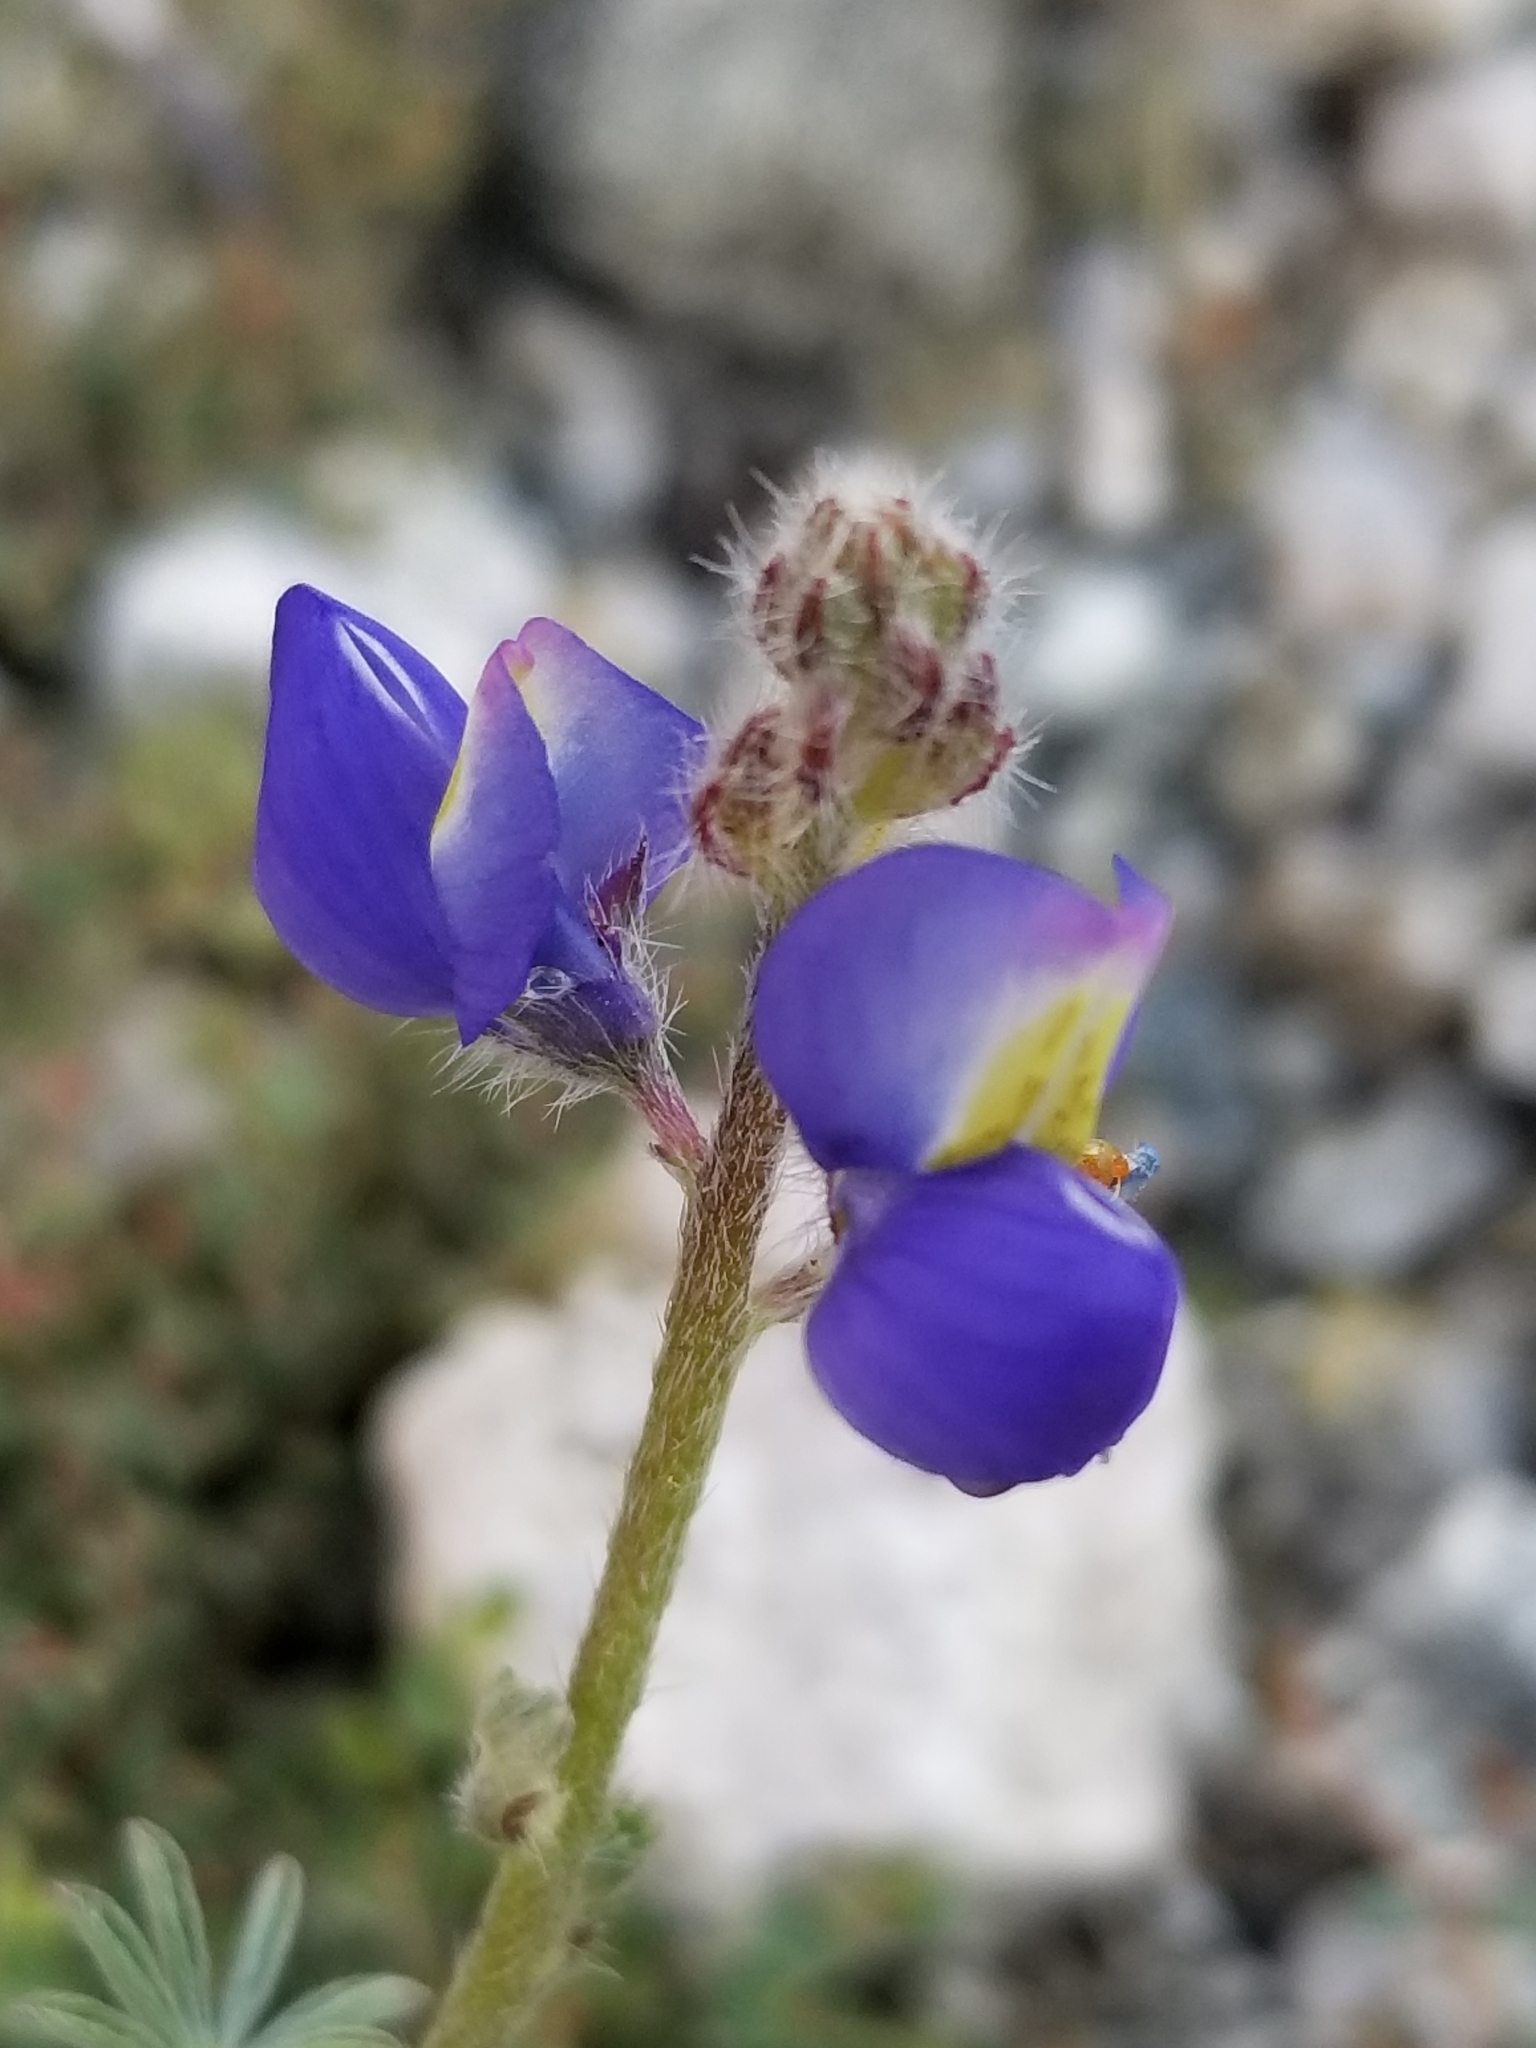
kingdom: Plantae
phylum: Tracheophyta
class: Magnoliopsida
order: Fabales
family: Fabaceae
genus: Lupinus
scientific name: Lupinus sparsiflorus
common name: Coulter's lupine
